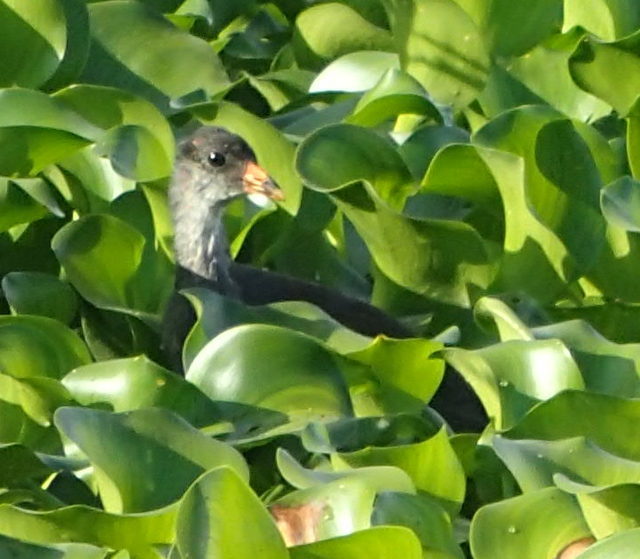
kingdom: Animalia
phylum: Chordata
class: Aves
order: Gruiformes
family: Rallidae
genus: Gallinula
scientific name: Gallinula chloropus
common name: Common moorhen
